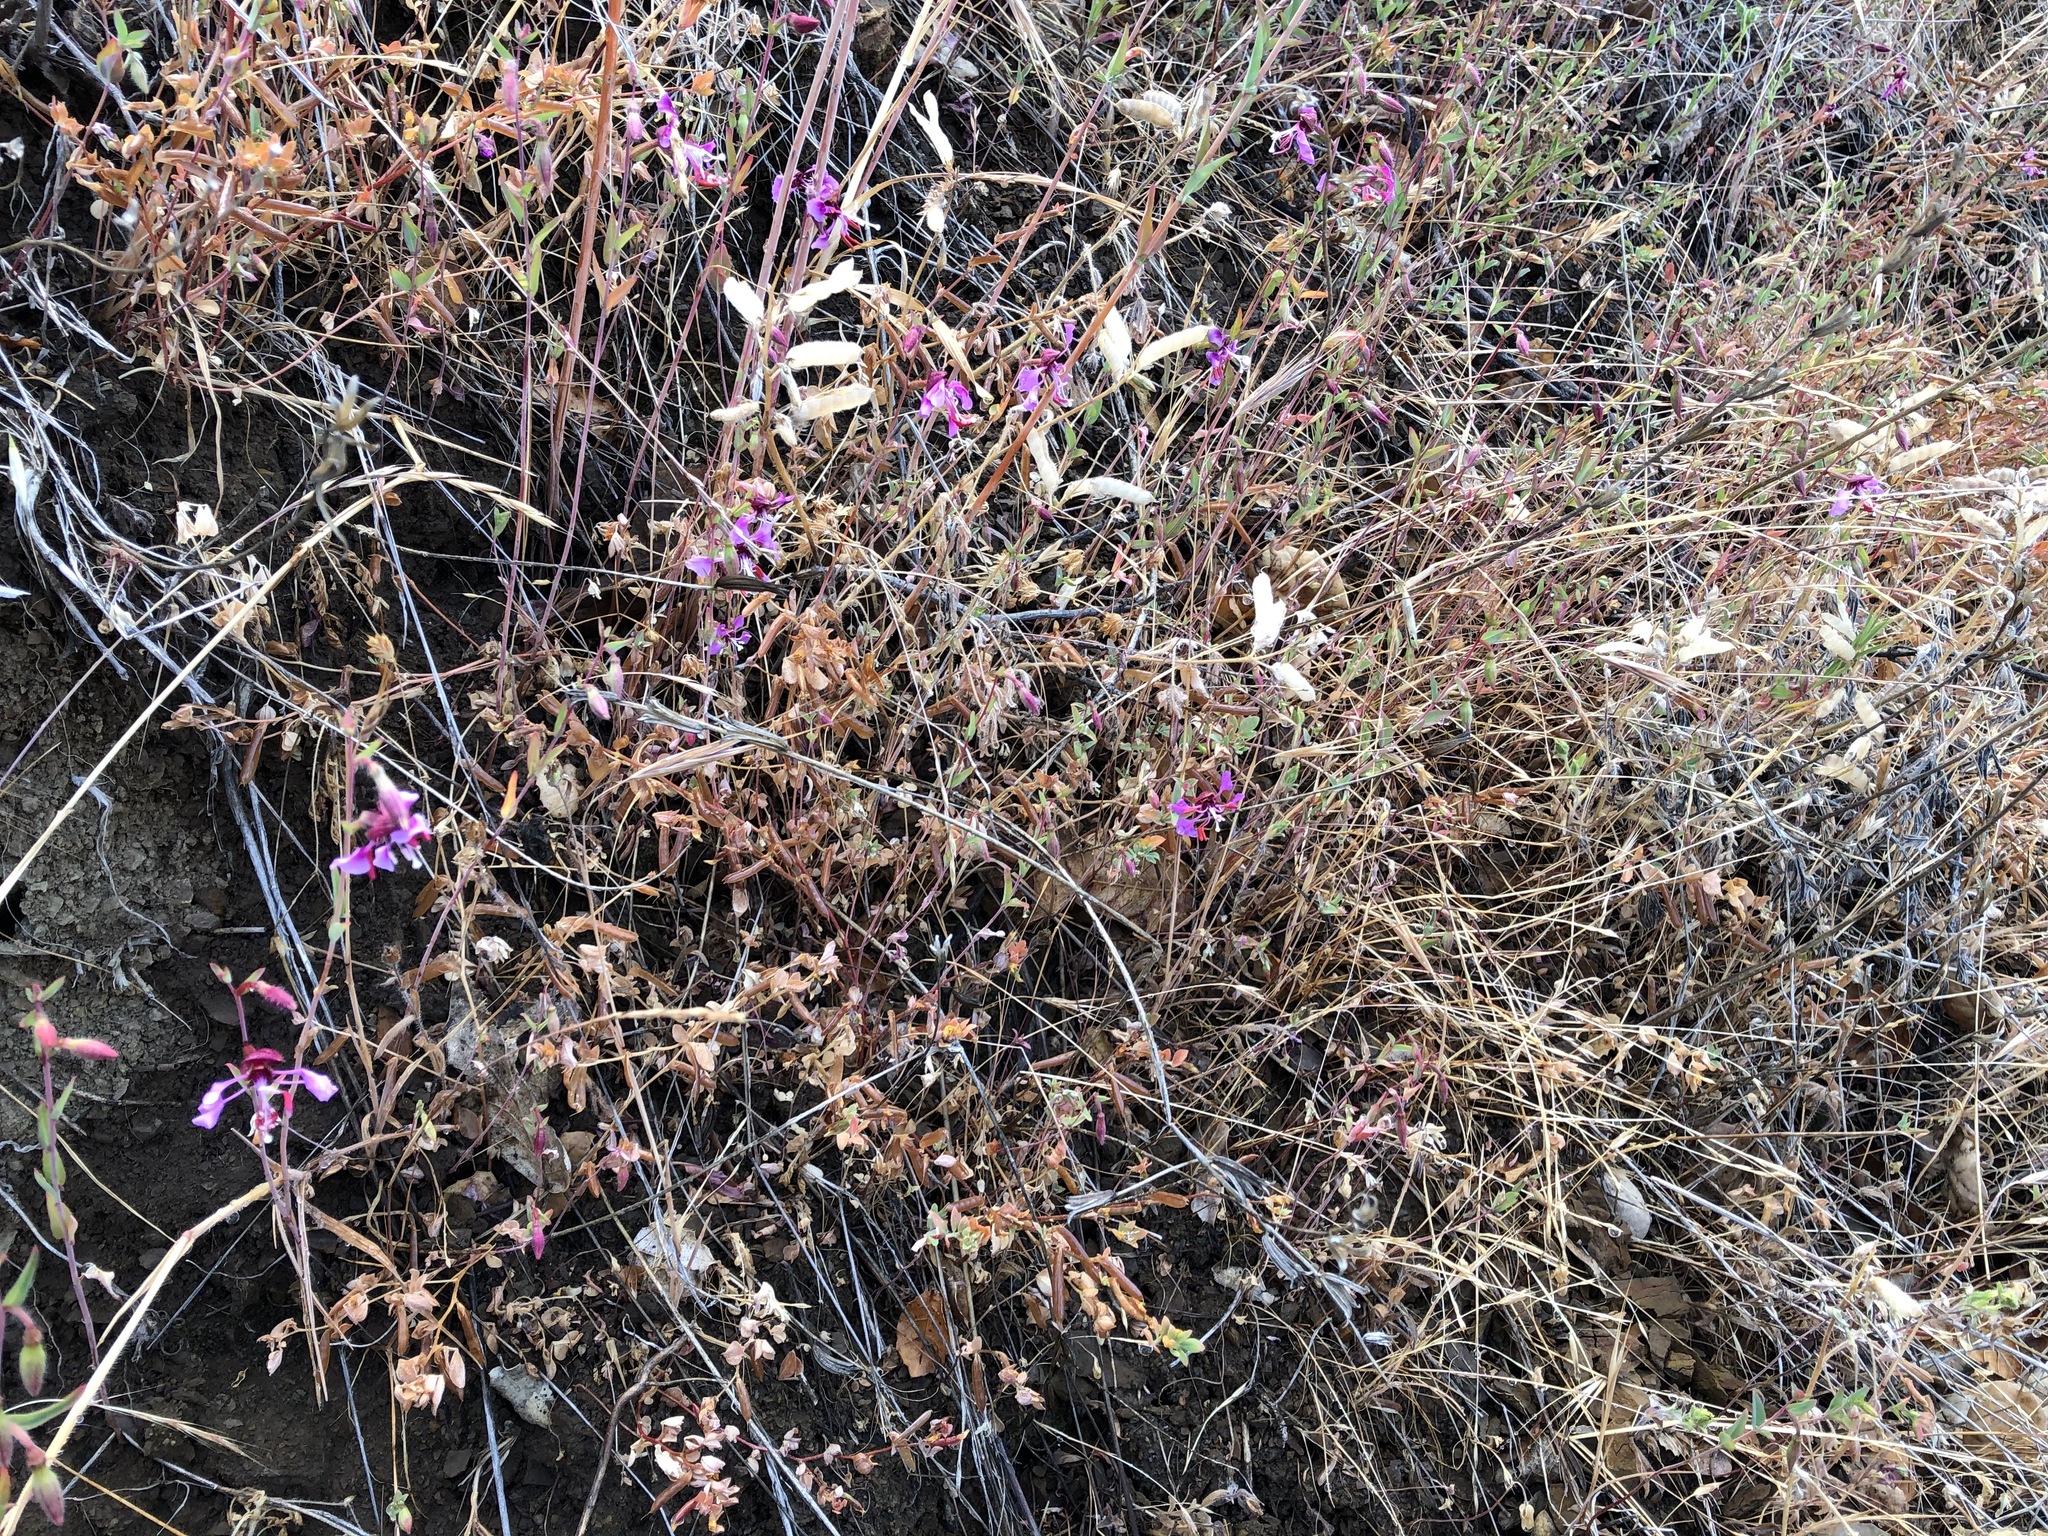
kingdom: Plantae
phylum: Tracheophyta
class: Magnoliopsida
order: Myrtales
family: Onagraceae
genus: Clarkia
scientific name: Clarkia unguiculata
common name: Clarkia
